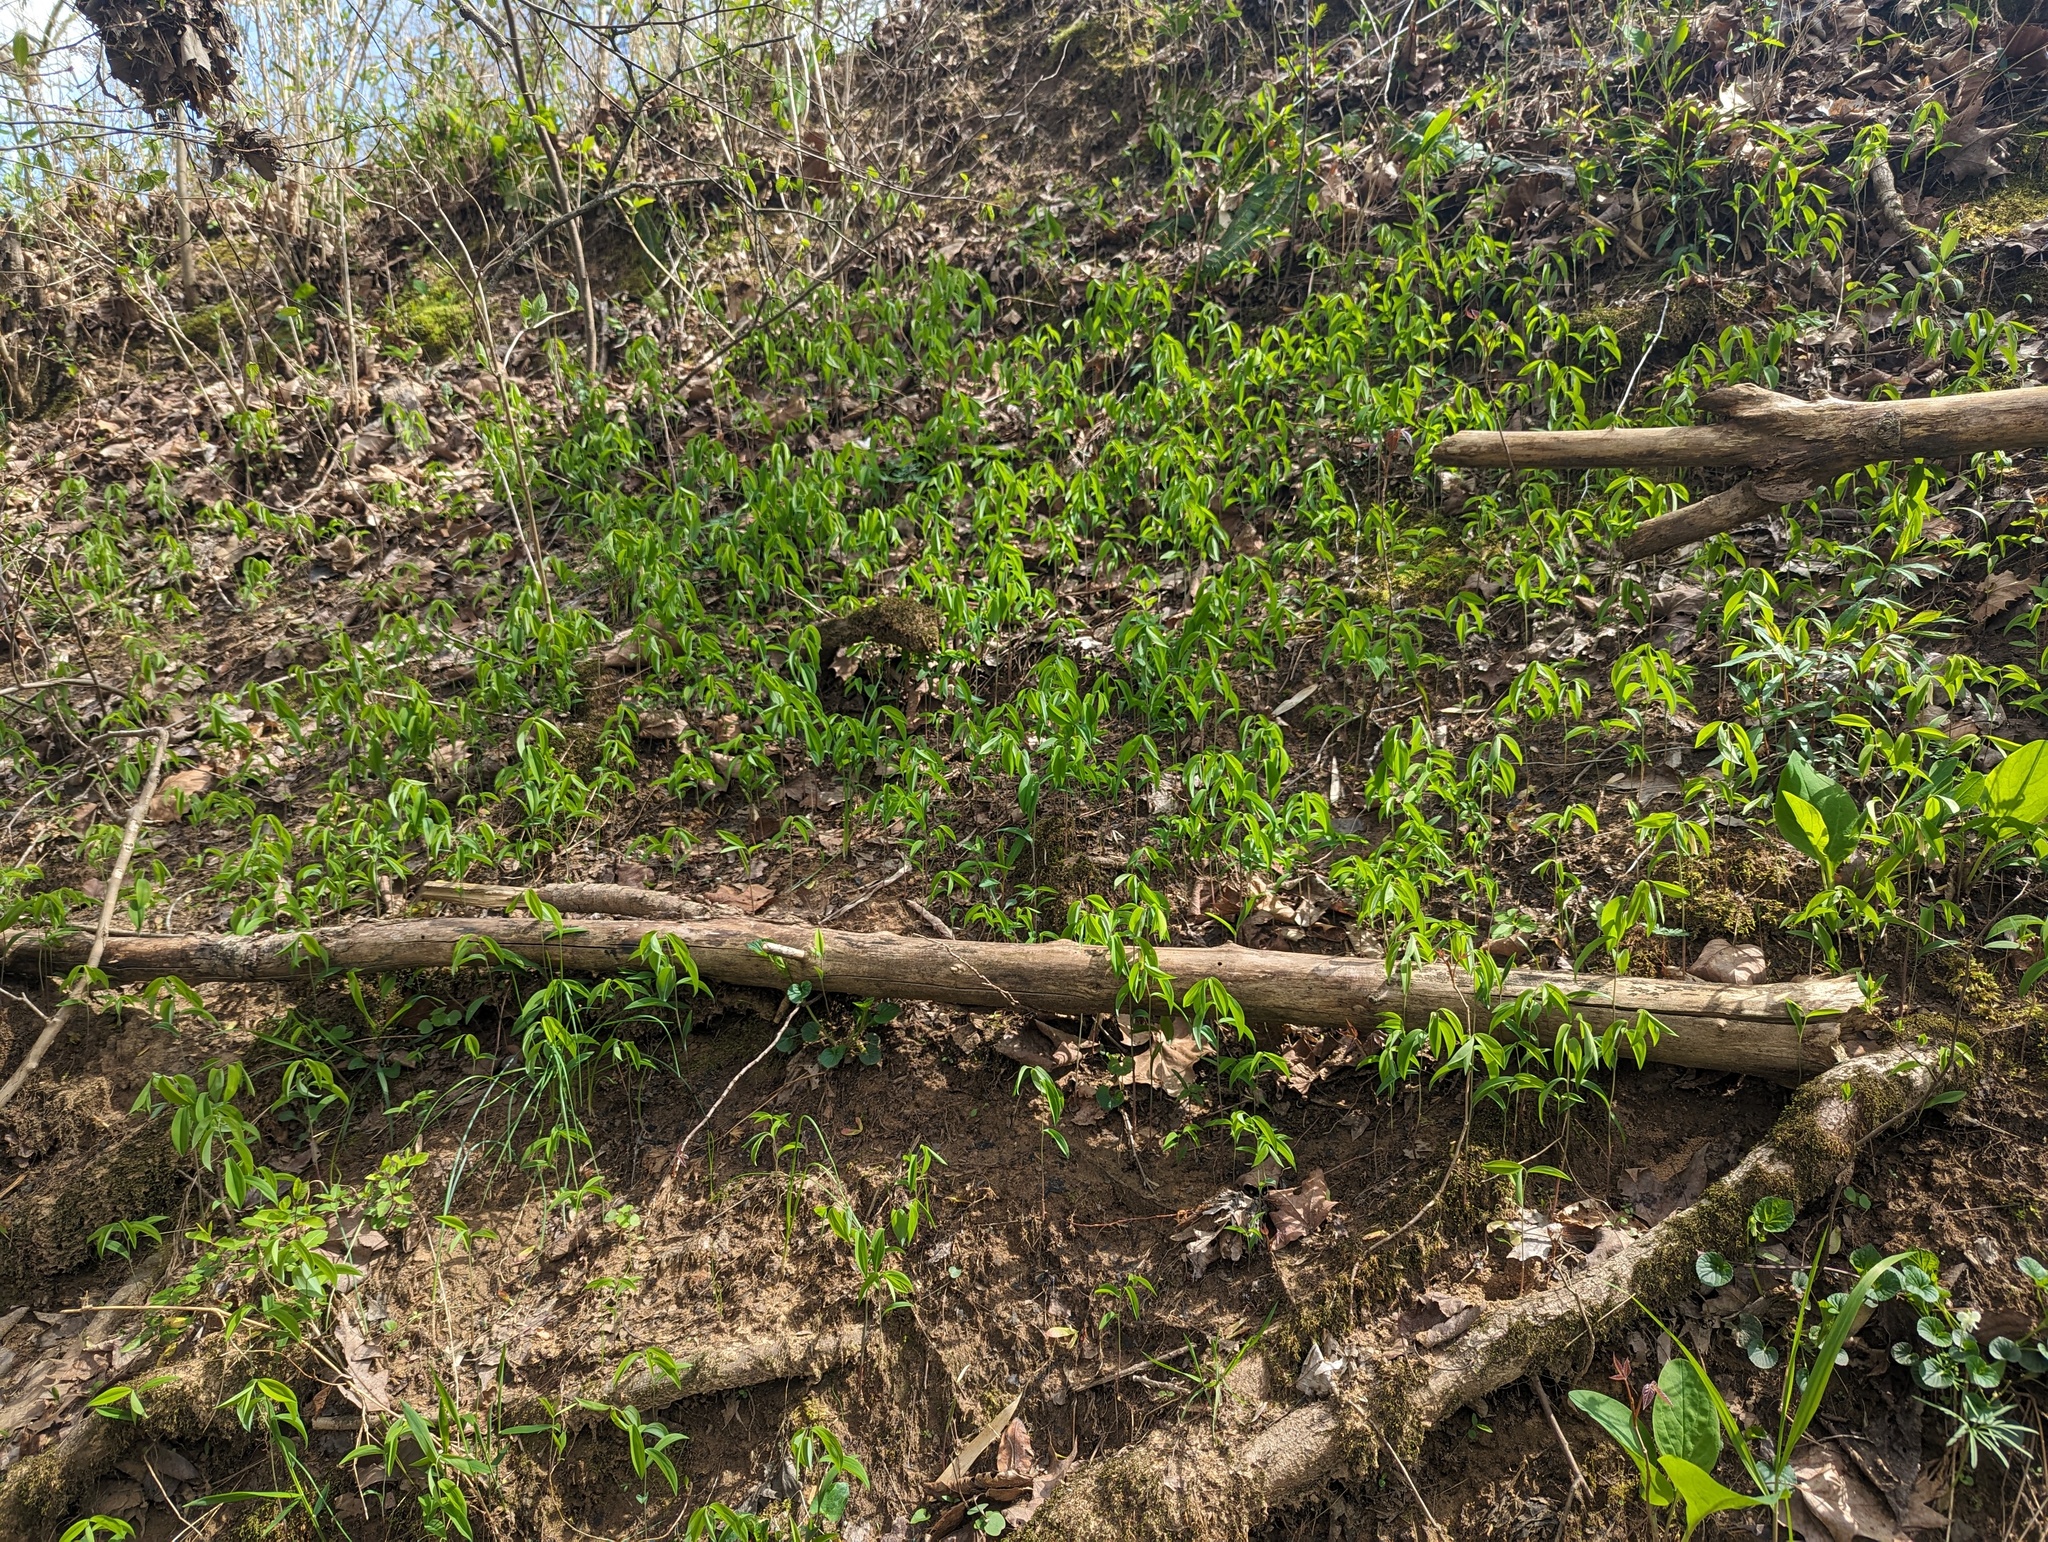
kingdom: Plantae
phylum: Tracheophyta
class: Liliopsida
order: Liliales
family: Colchicaceae
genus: Uvularia
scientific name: Uvularia sessilifolia
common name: Straw-lily
